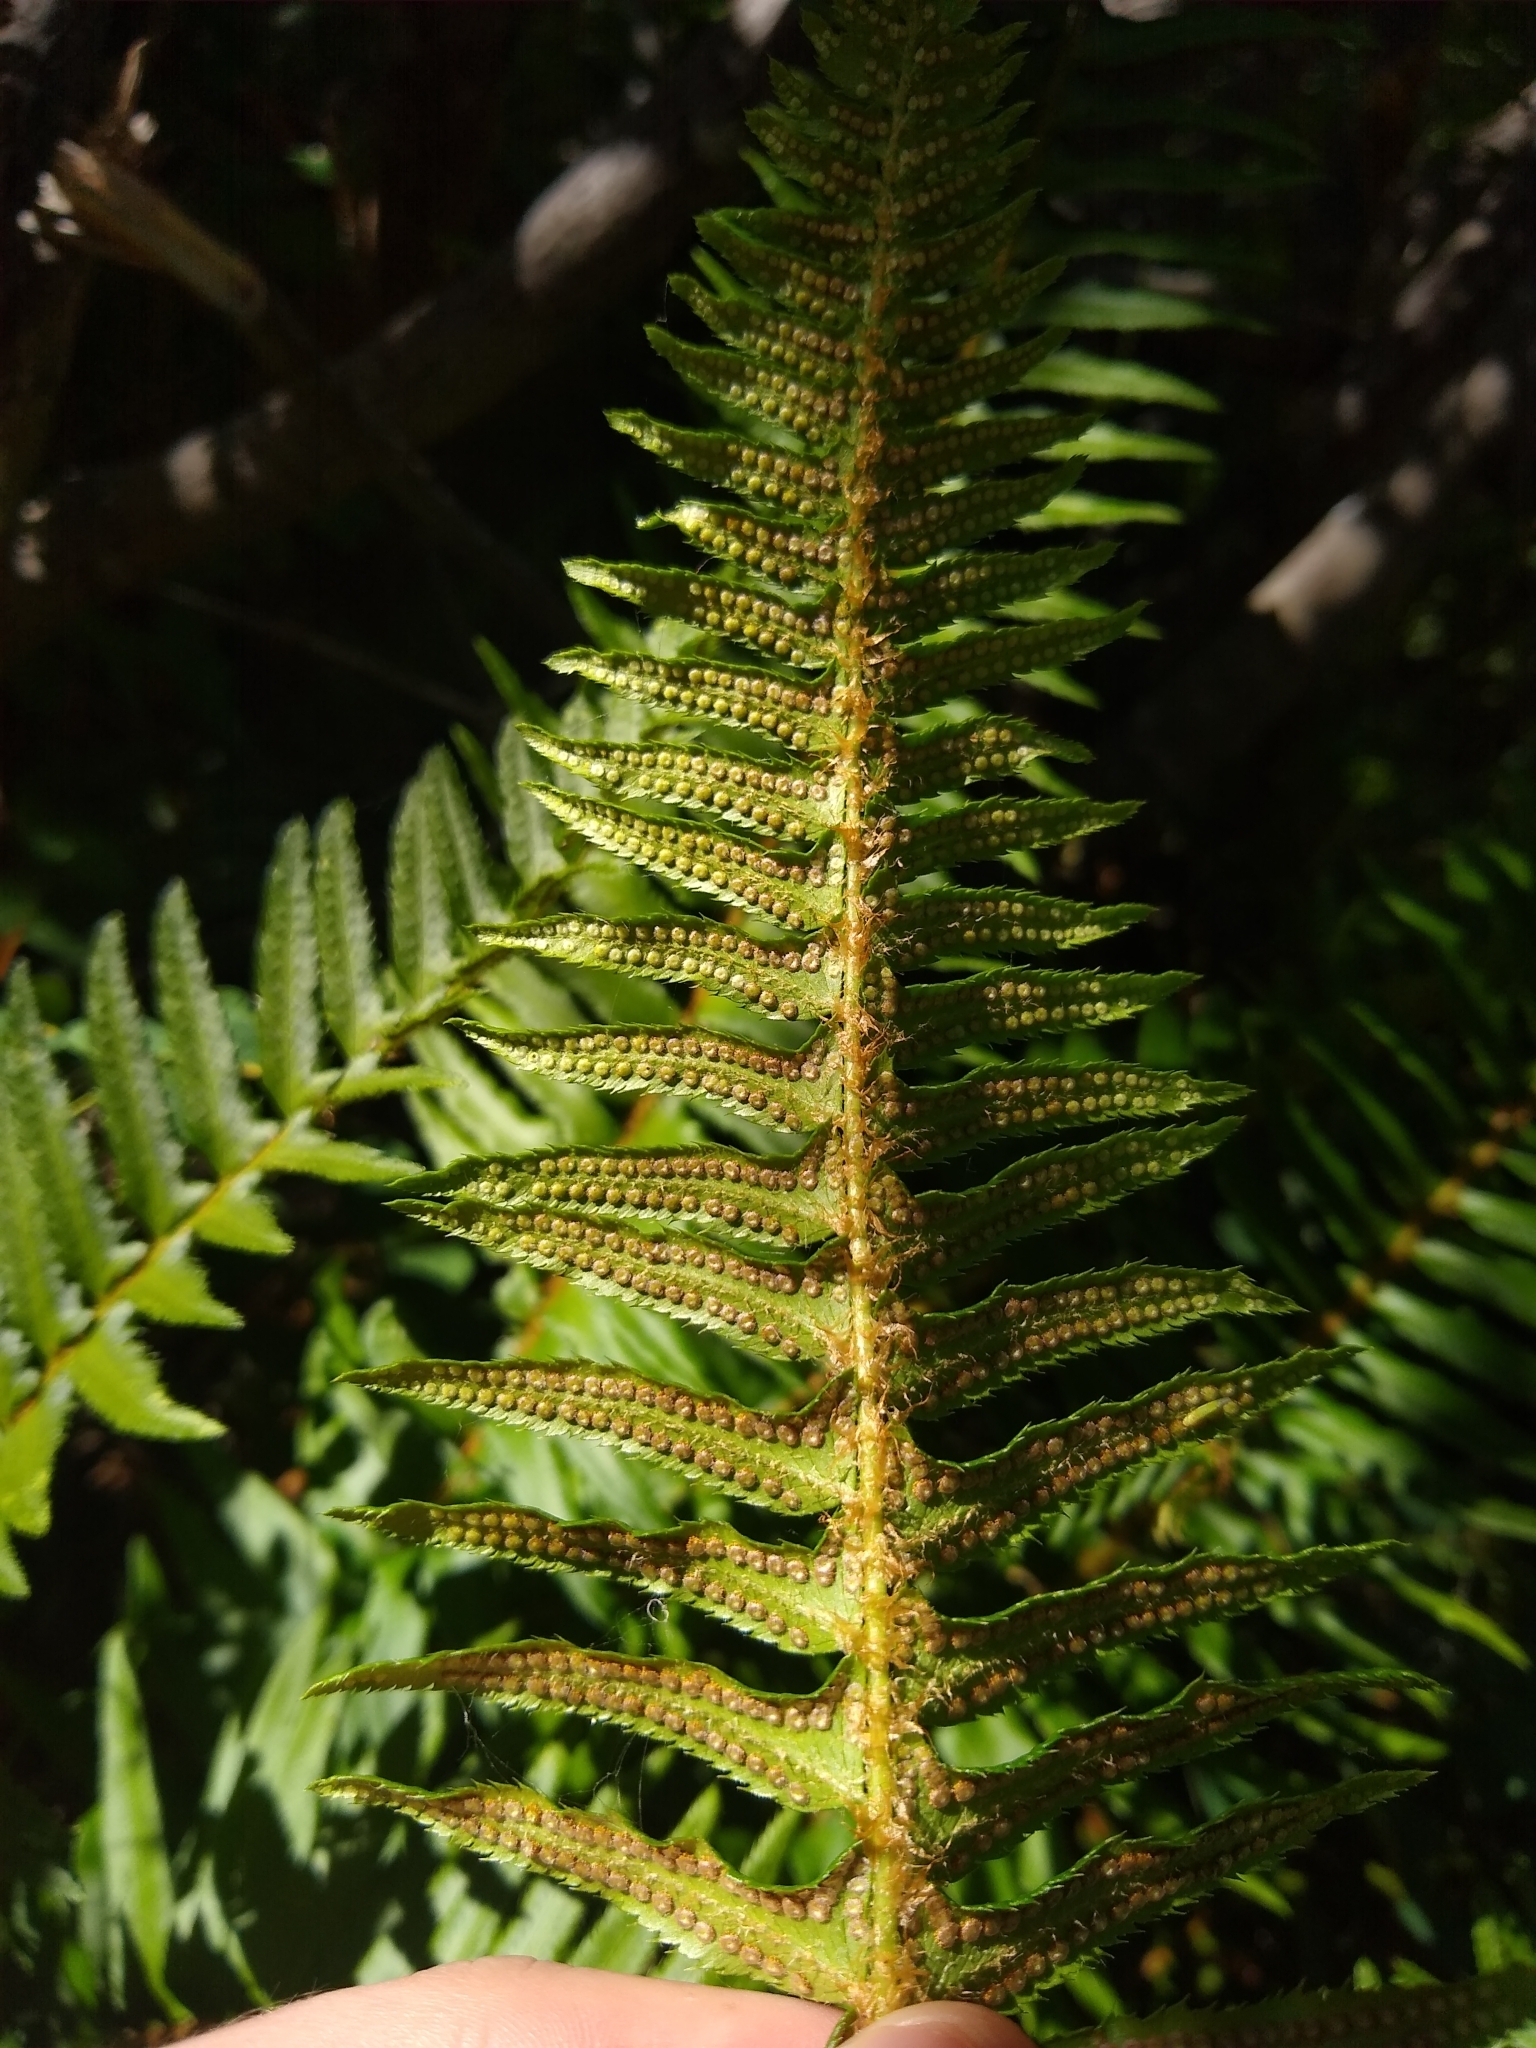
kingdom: Plantae
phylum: Tracheophyta
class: Polypodiopsida
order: Polypodiales
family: Dryopteridaceae
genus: Polystichum
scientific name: Polystichum munitum
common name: Western sword-fern
